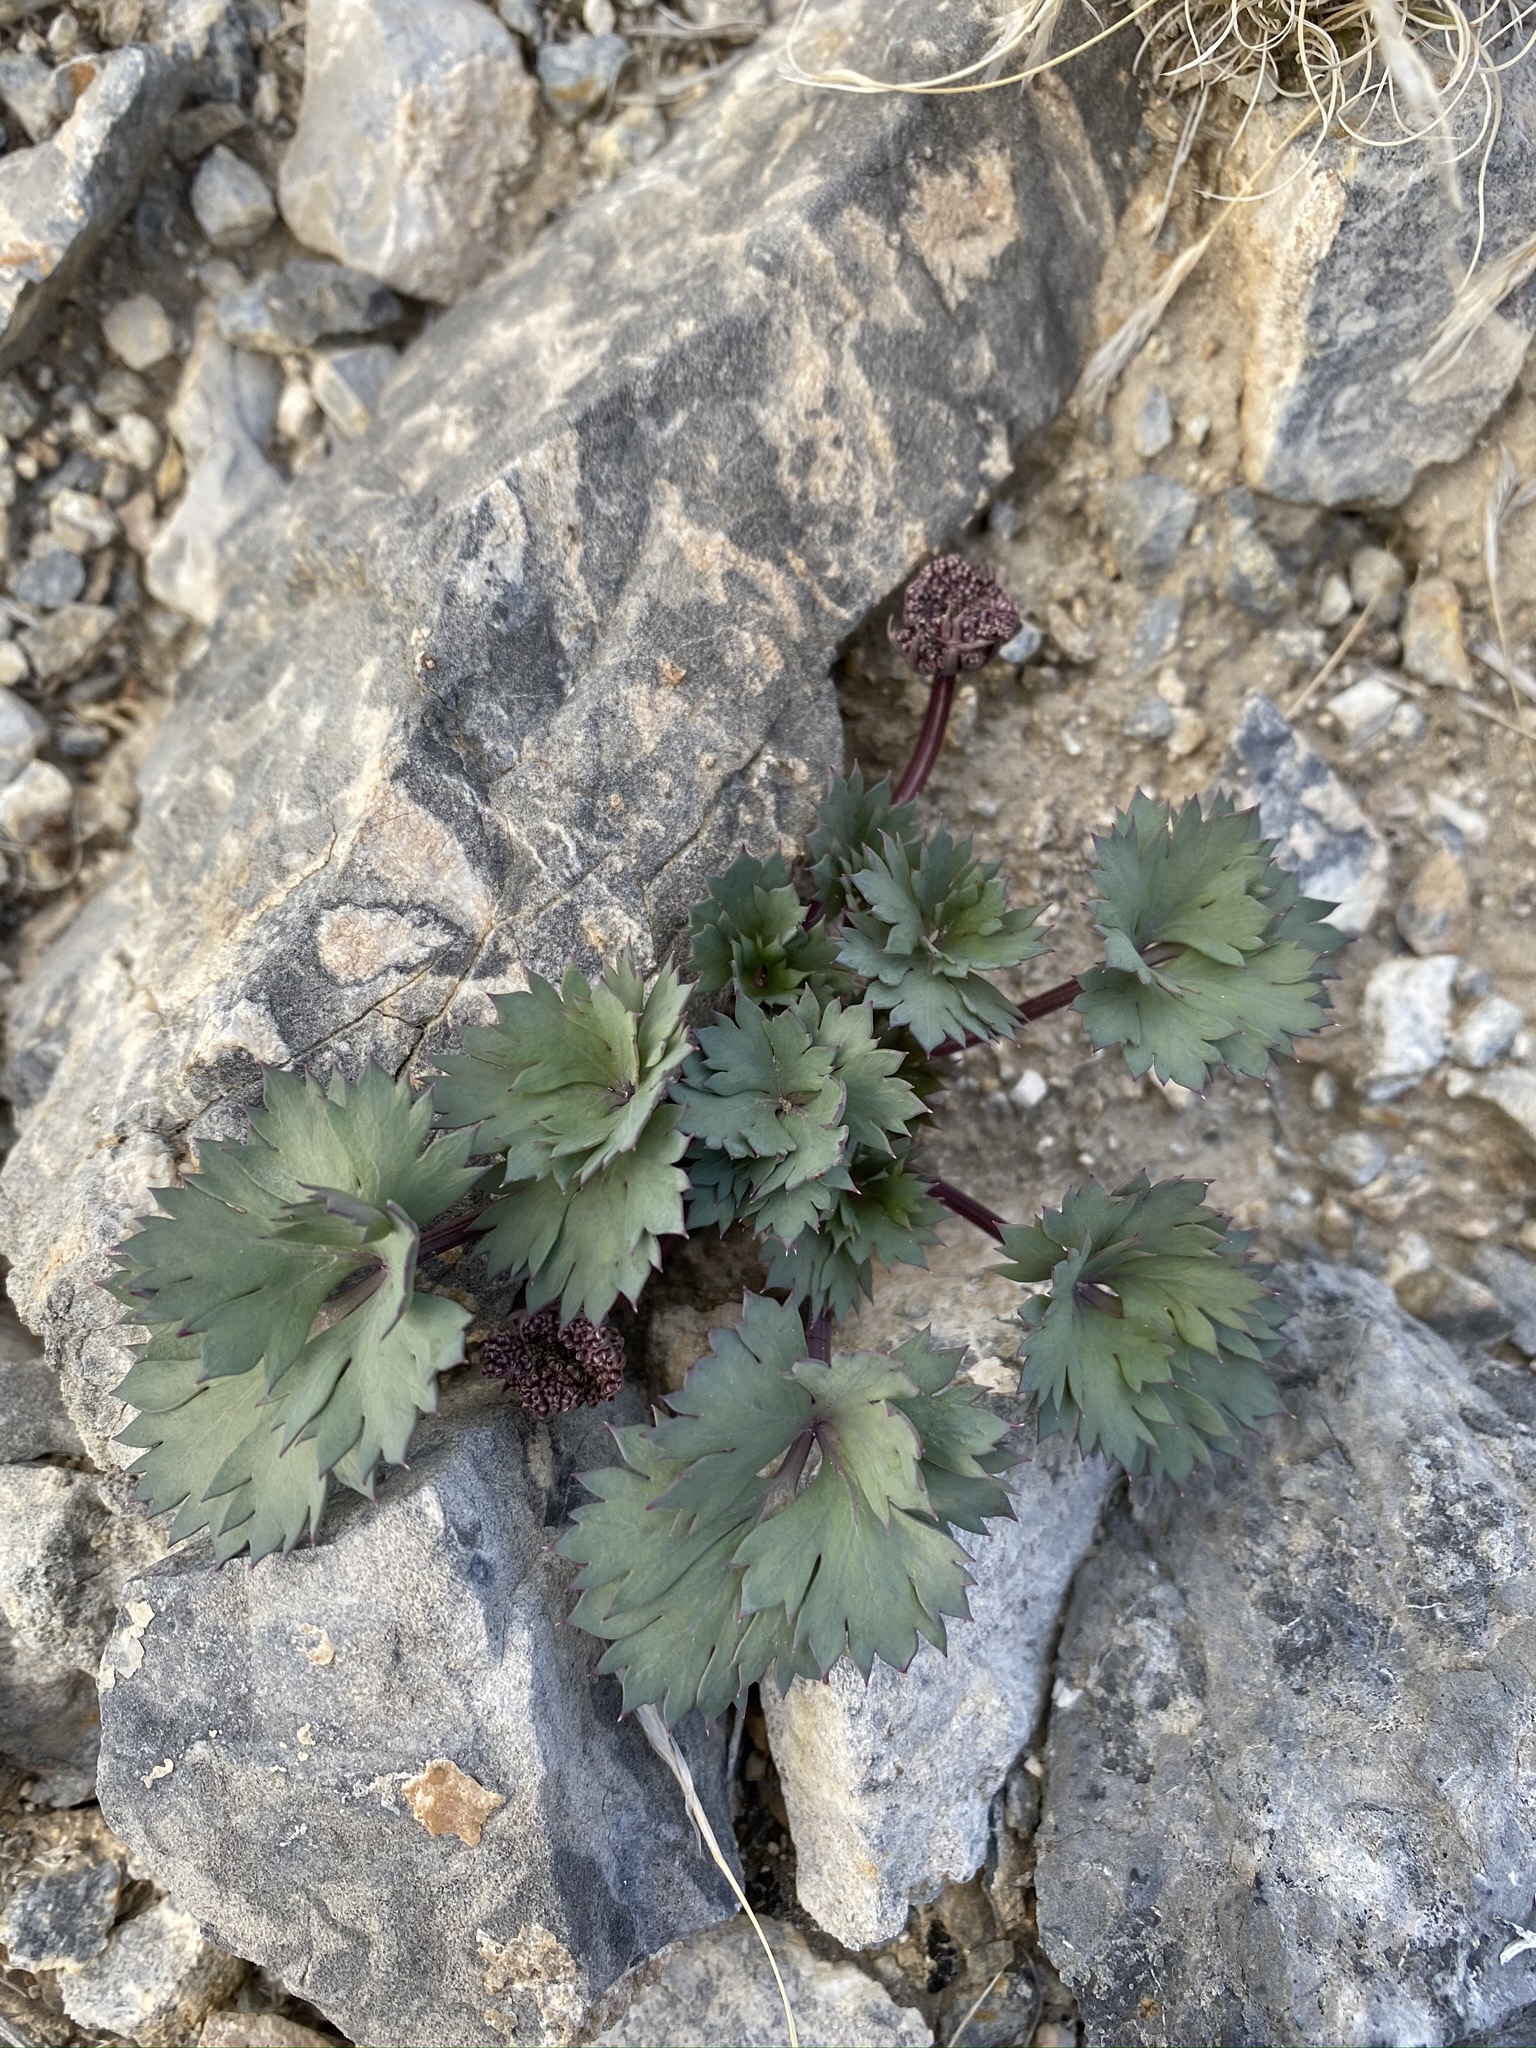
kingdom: Plantae
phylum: Tracheophyta
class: Magnoliopsida
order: Apiales
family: Apiaceae
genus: Cymopterus
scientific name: Cymopterus gilmanii
